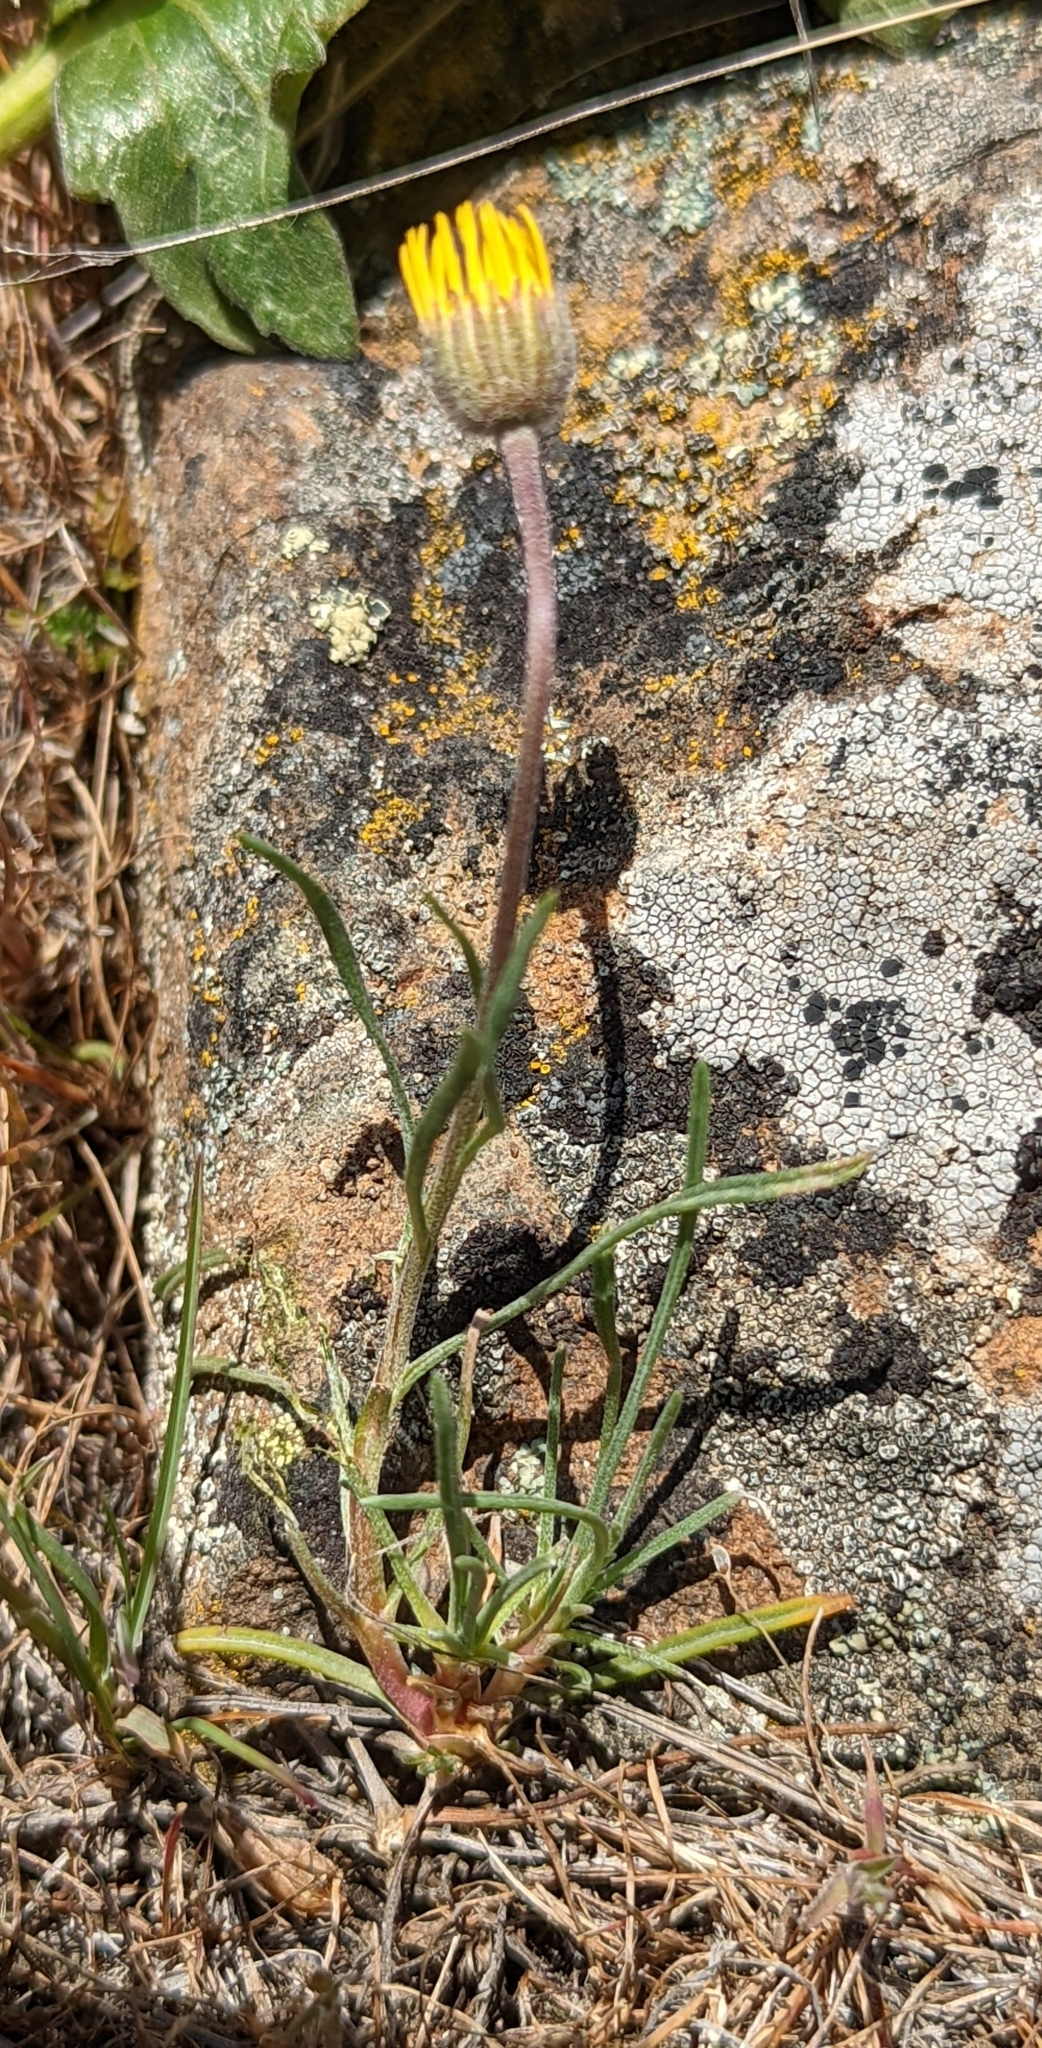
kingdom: Plantae
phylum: Tracheophyta
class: Magnoliopsida
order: Asterales
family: Asteraceae
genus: Erigeron
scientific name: Erigeron linearis
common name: Desert yellow fleabane
